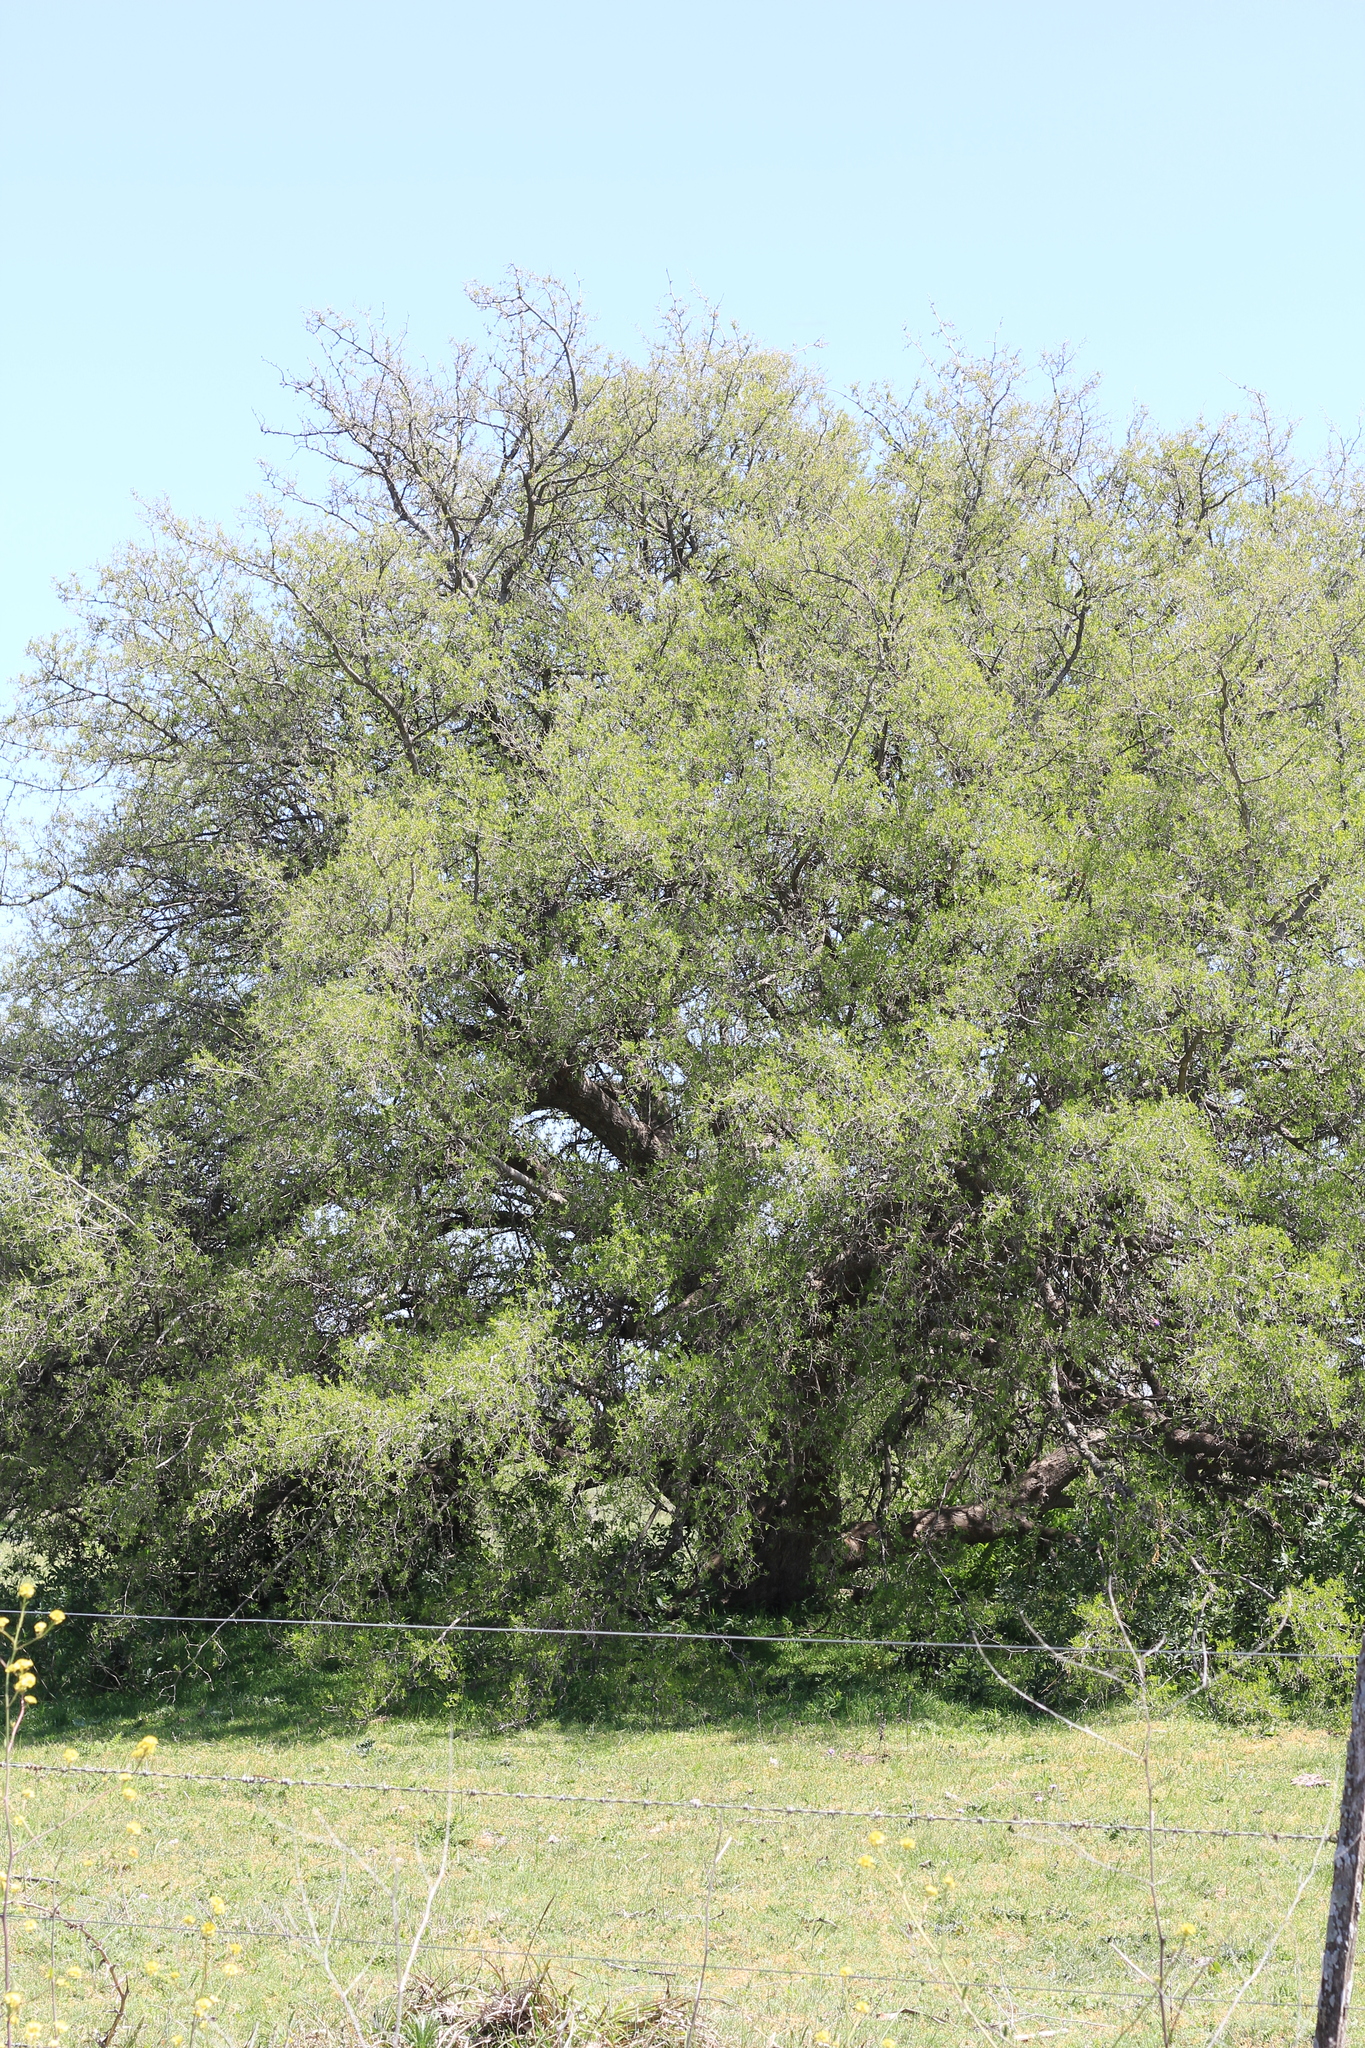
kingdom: Plantae
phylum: Tracheophyta
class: Magnoliopsida
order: Rosales
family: Cannabaceae
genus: Celtis
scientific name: Celtis tala
